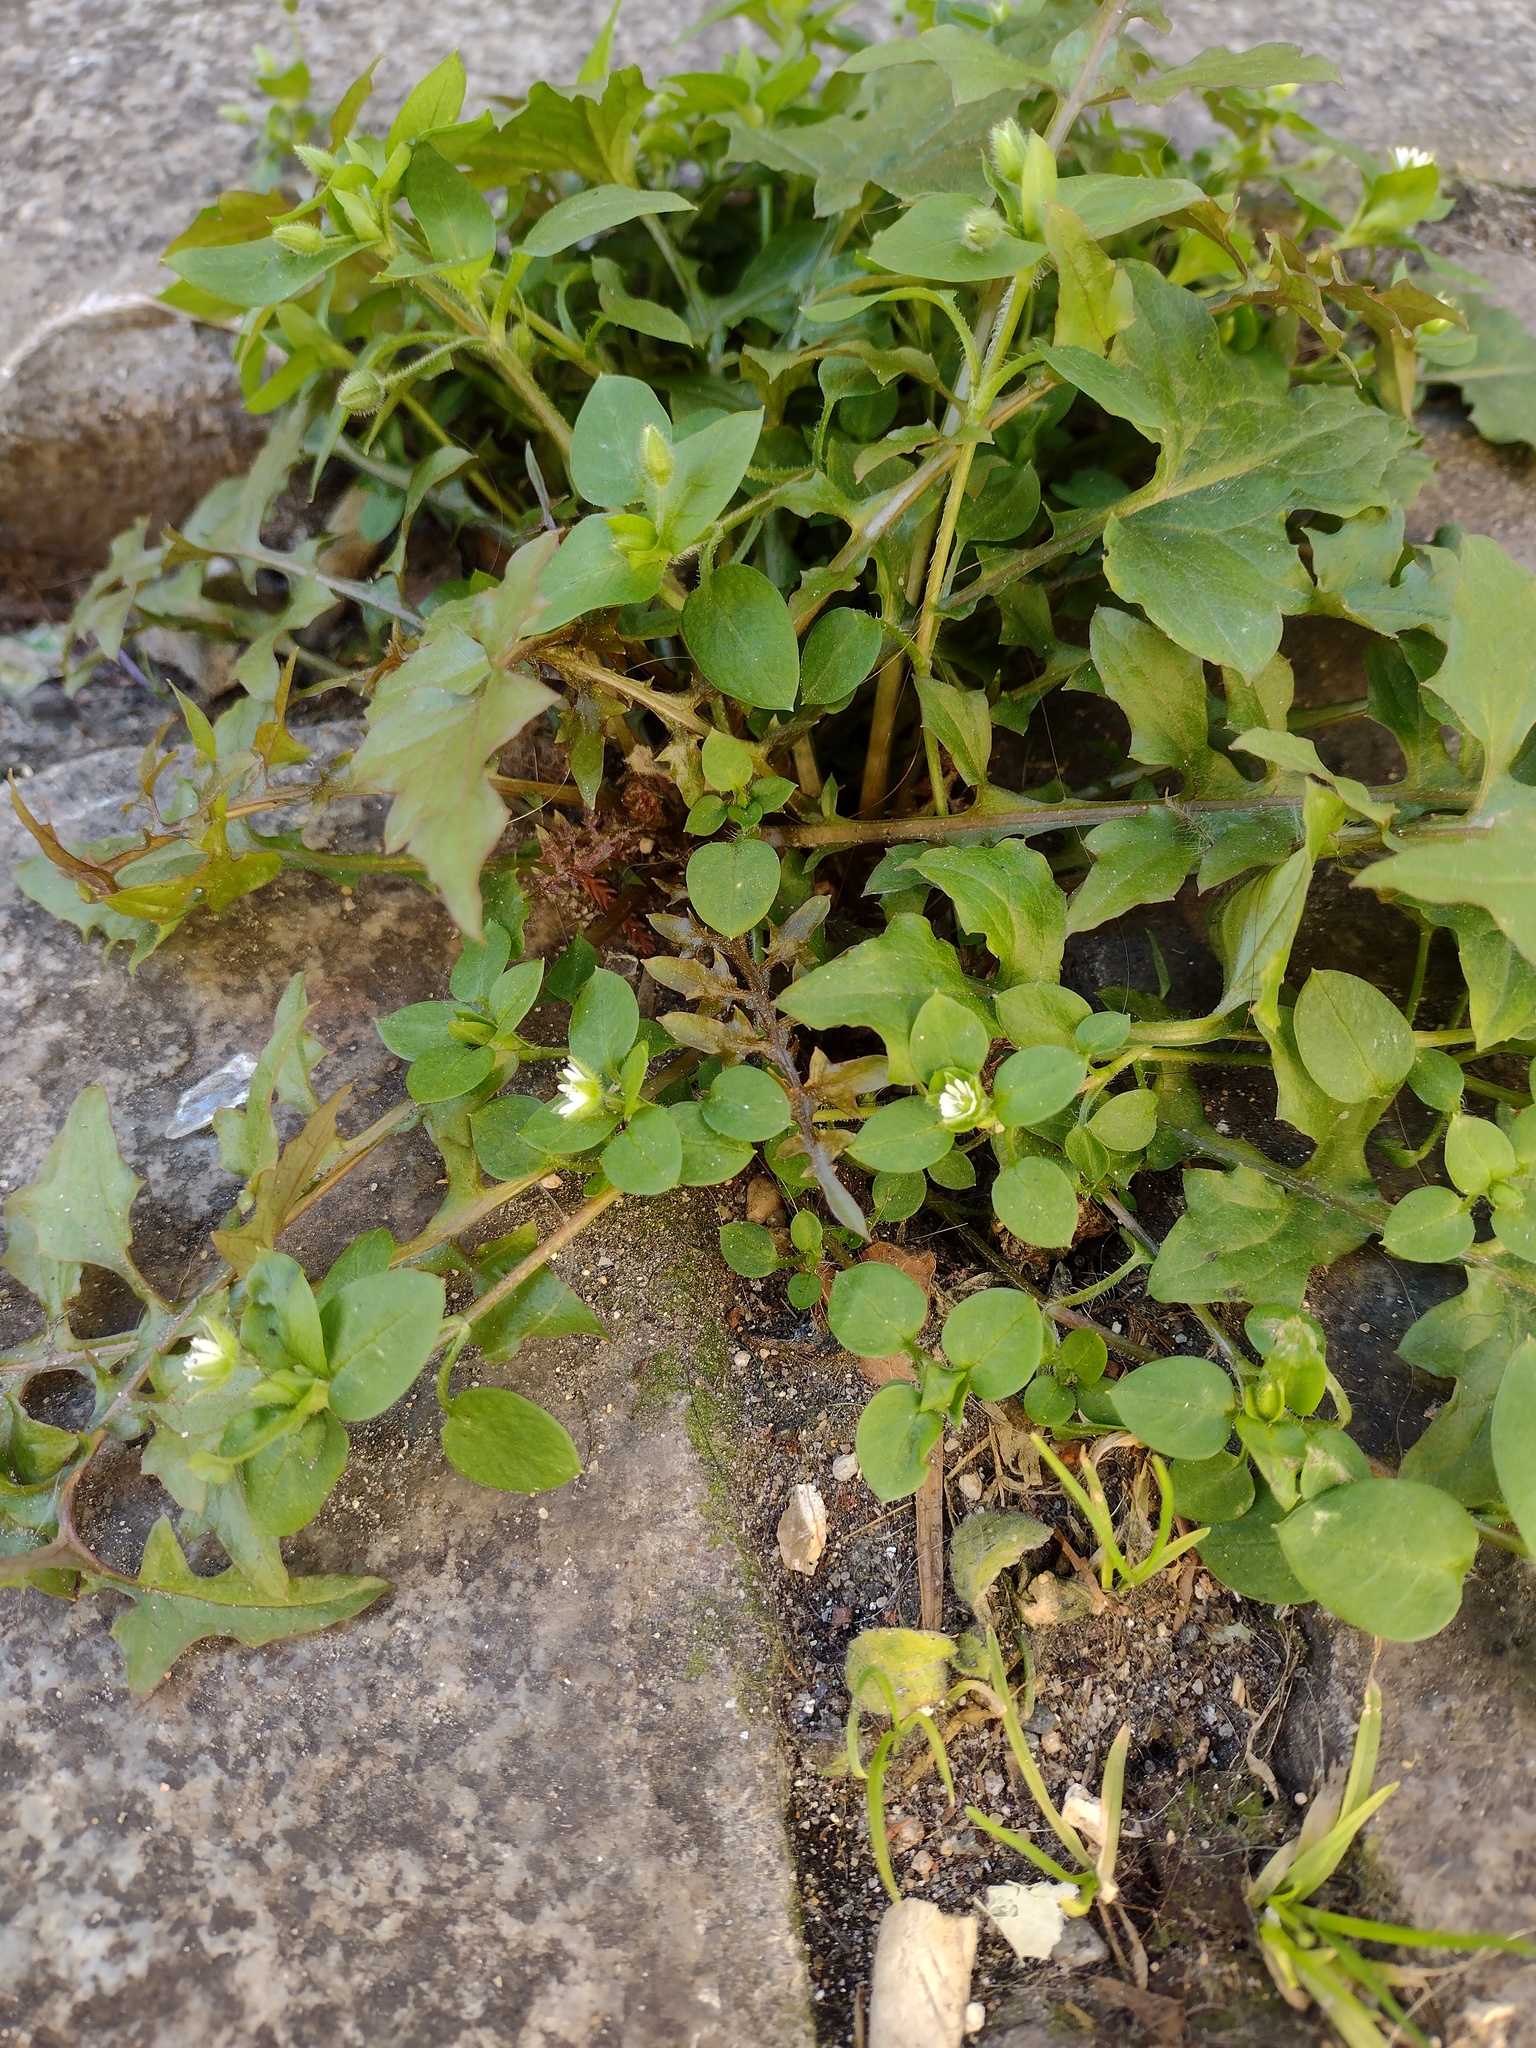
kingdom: Plantae
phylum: Tracheophyta
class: Magnoliopsida
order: Caryophyllales
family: Caryophyllaceae
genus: Stellaria
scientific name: Stellaria media
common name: Common chickweed
